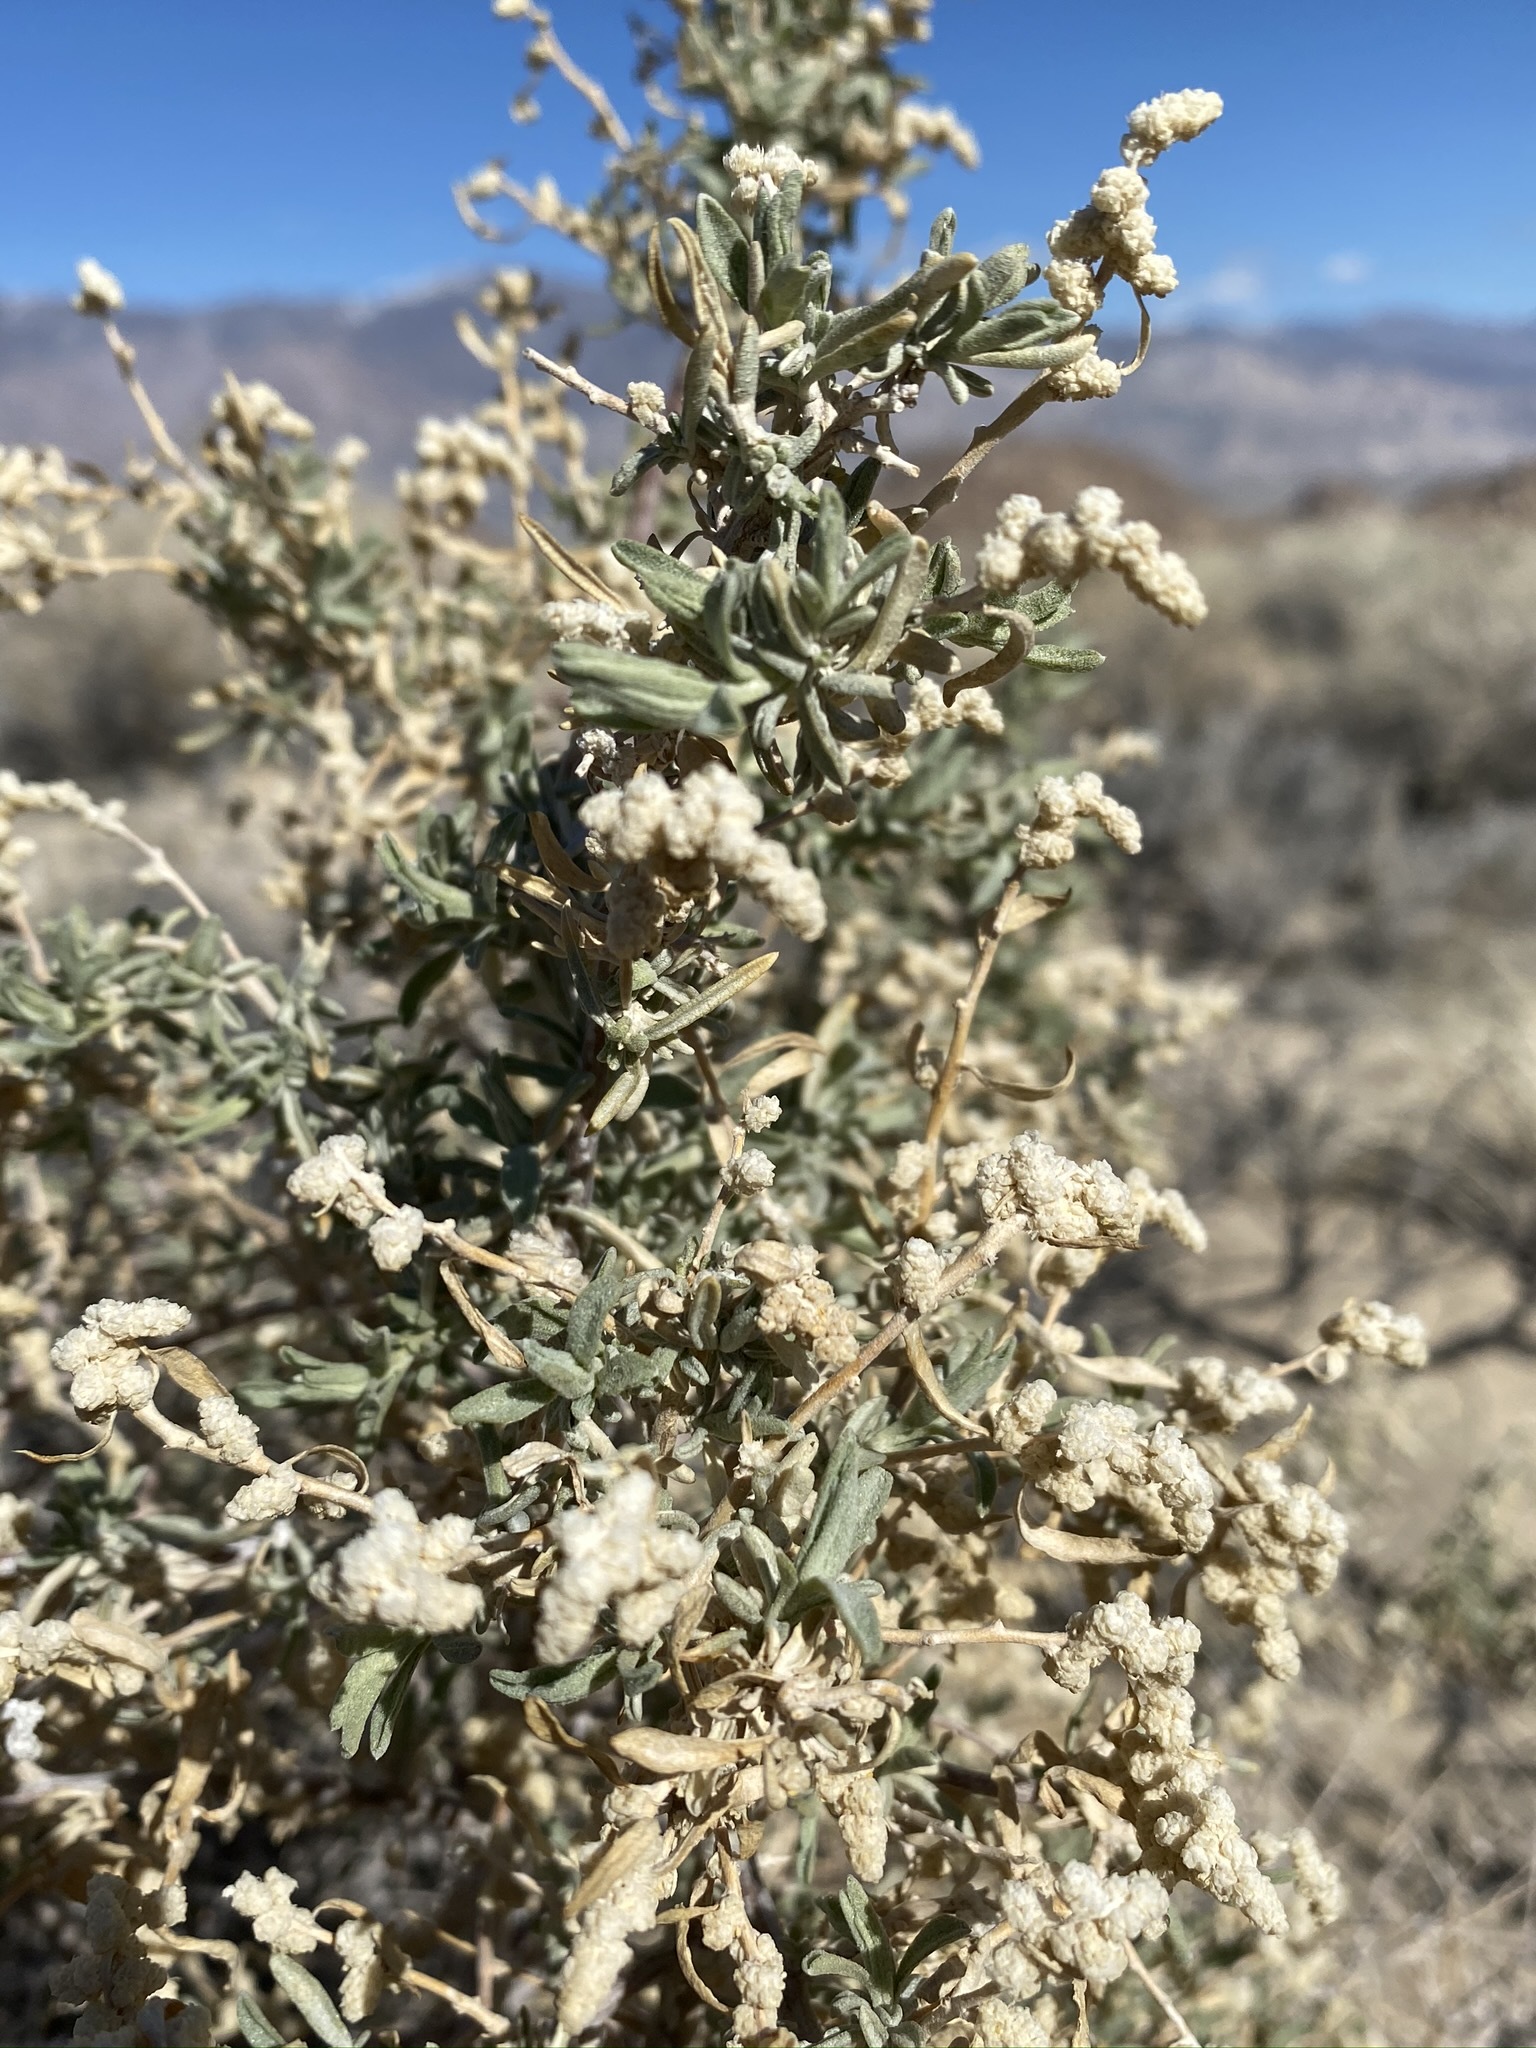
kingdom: Plantae
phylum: Tracheophyta
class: Magnoliopsida
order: Caryophyllales
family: Amaranthaceae
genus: Atriplex
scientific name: Atriplex canescens
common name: Four-wing saltbush
